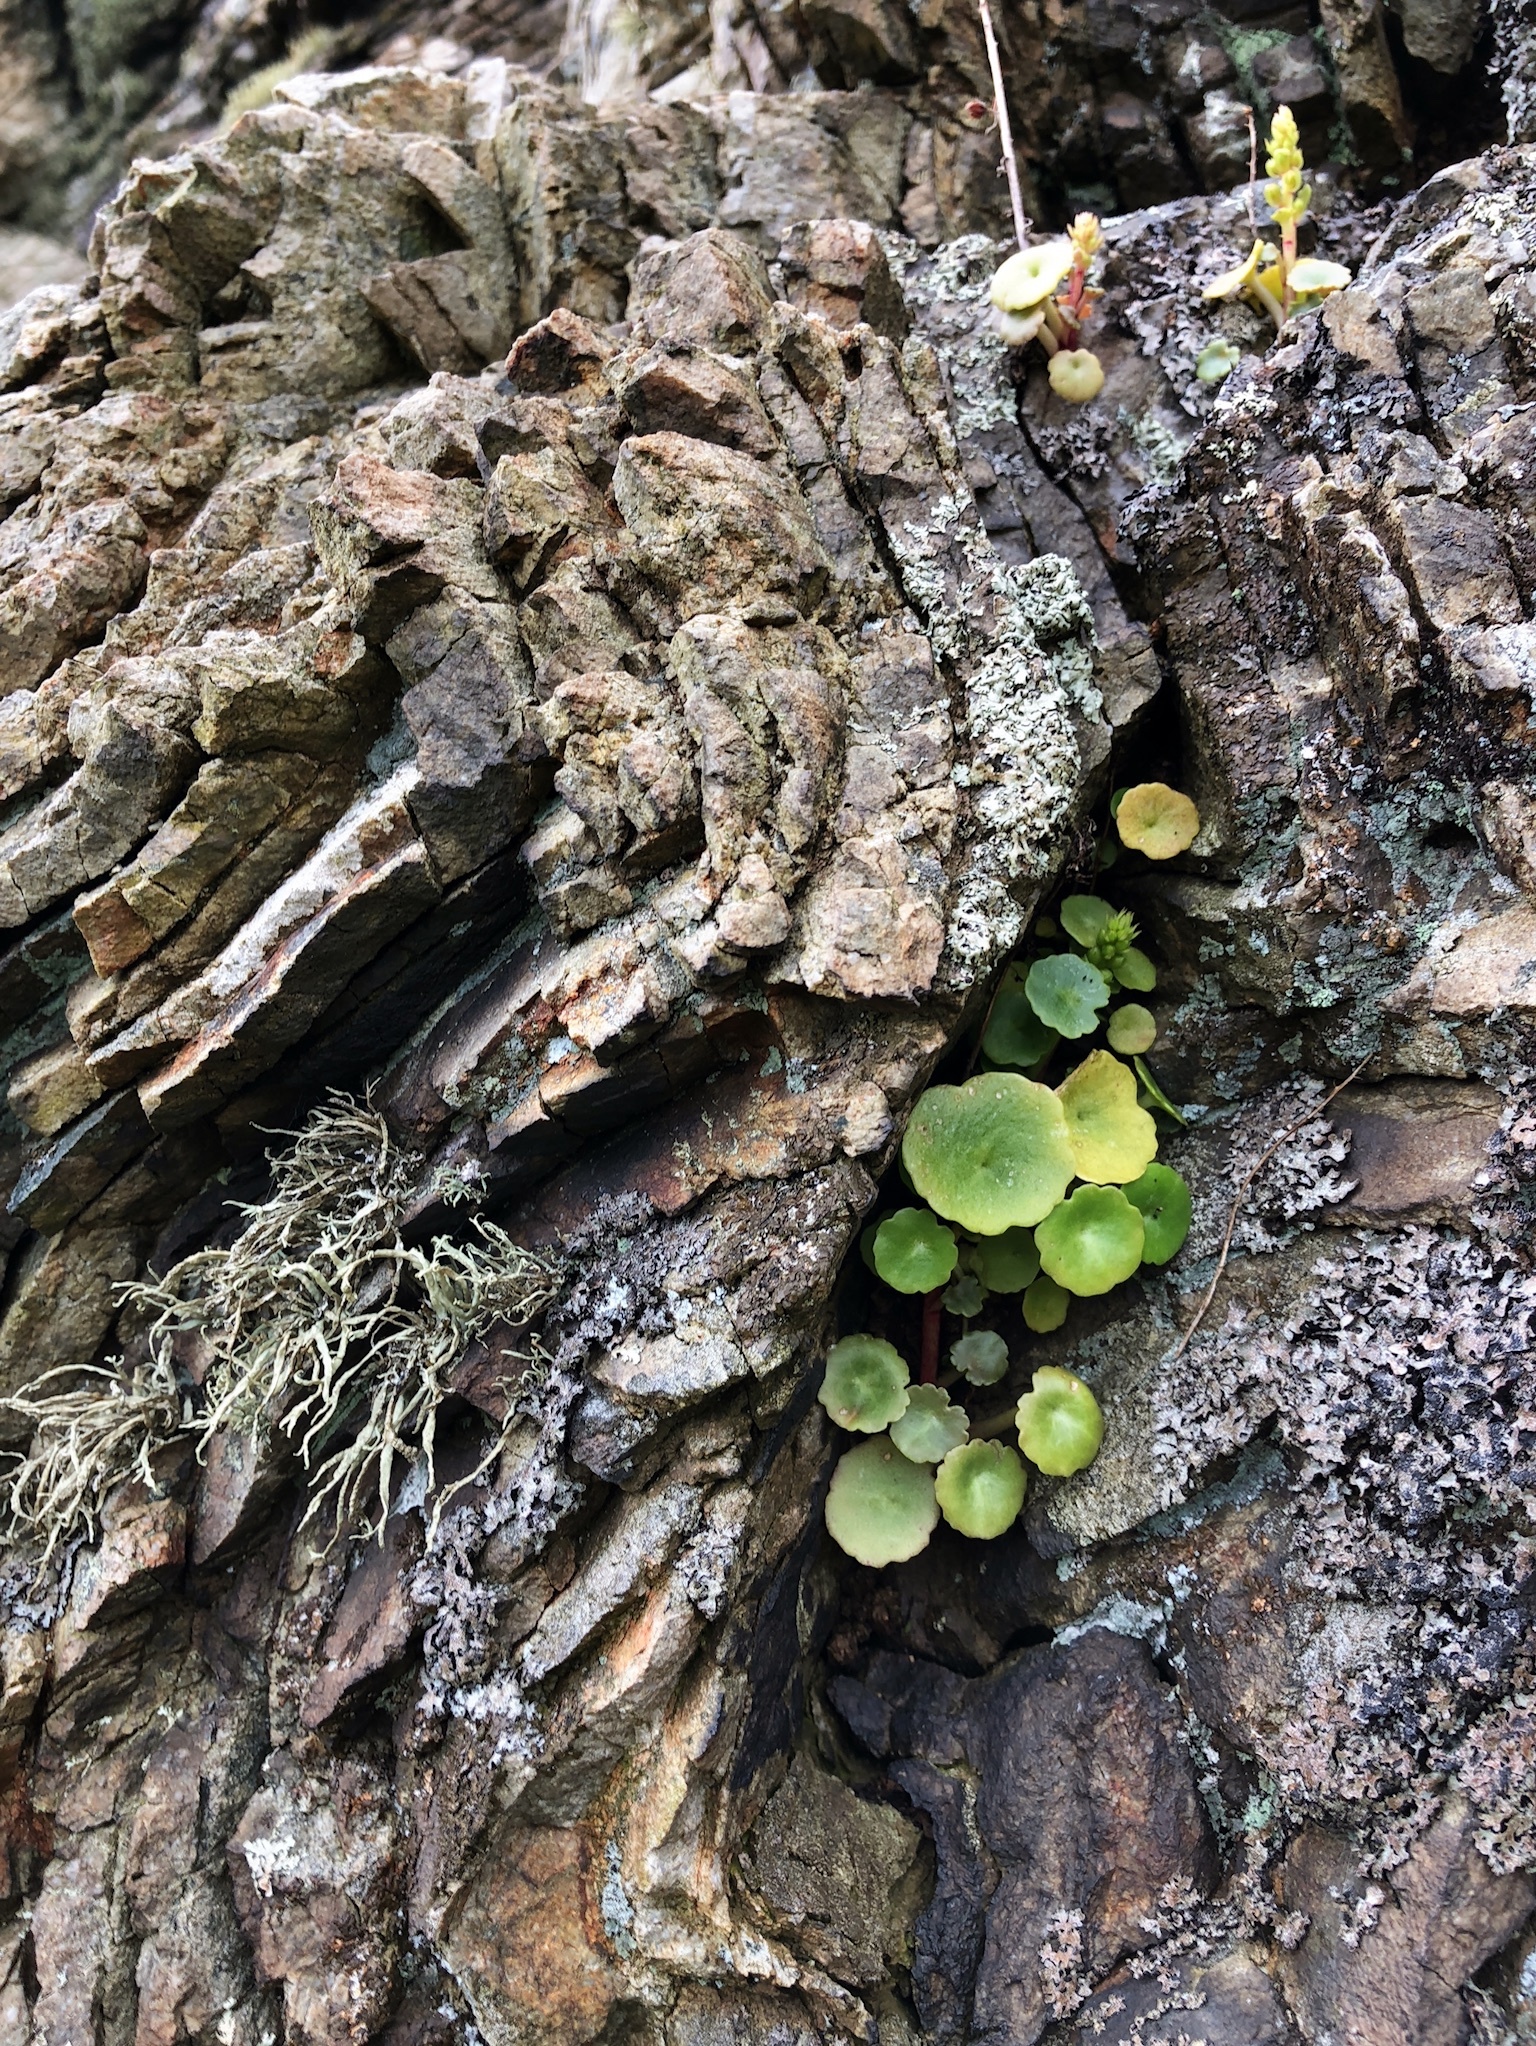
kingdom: Plantae
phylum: Tracheophyta
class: Magnoliopsida
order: Saxifragales
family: Crassulaceae
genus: Umbilicus
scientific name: Umbilicus rupestris
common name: Navelwort
